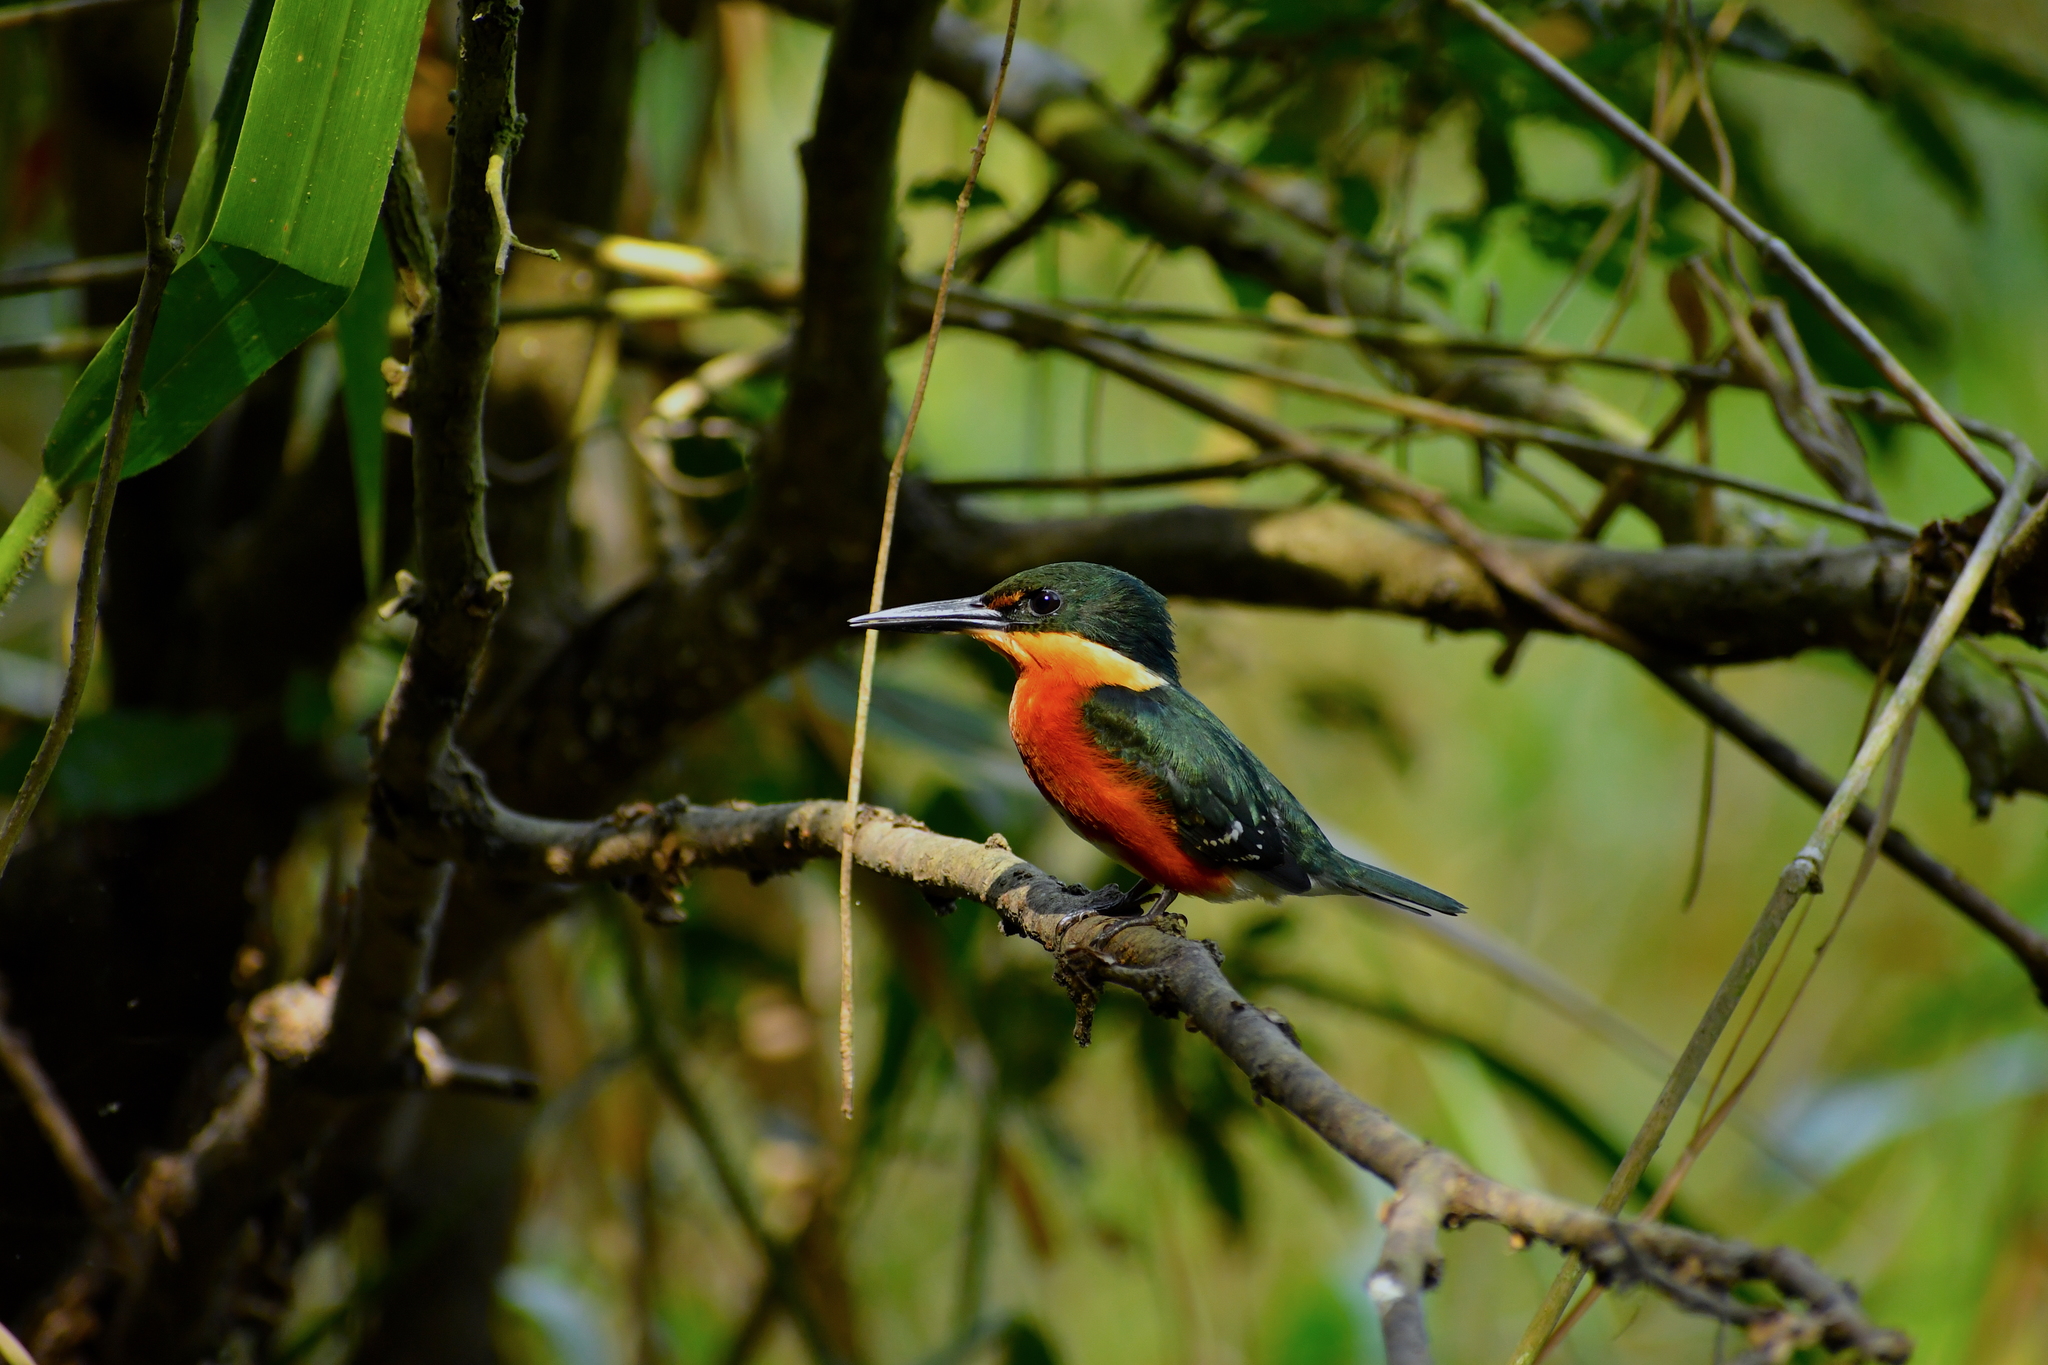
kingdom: Animalia
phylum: Chordata
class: Aves
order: Coraciiformes
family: Alcedinidae
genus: Chloroceryle
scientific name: Chloroceryle aenea
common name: American pygmy kingfisher
